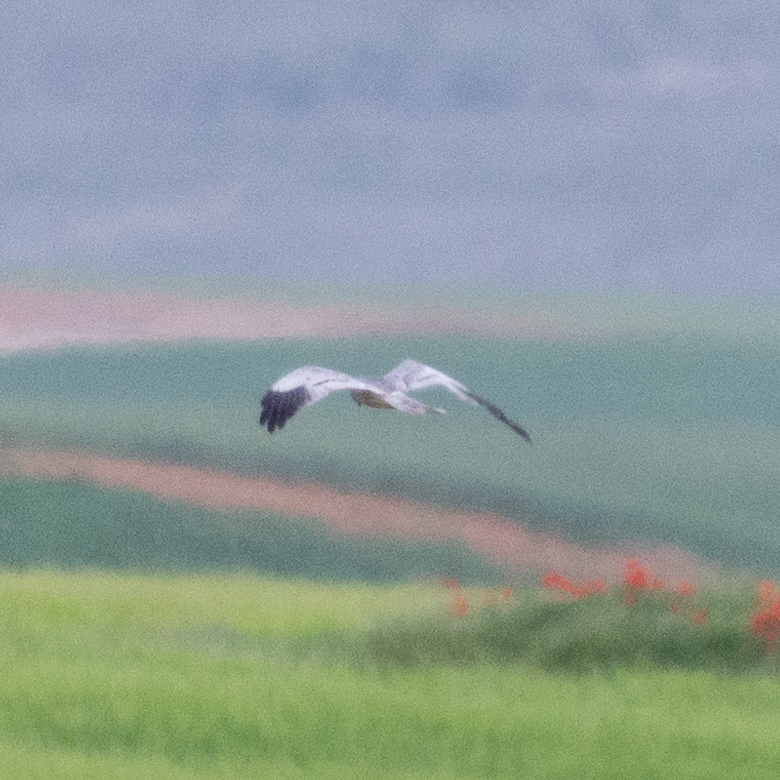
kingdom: Animalia
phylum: Chordata
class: Aves
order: Accipitriformes
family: Accipitridae
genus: Circus
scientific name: Circus pygargus
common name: Montagu's harrier
